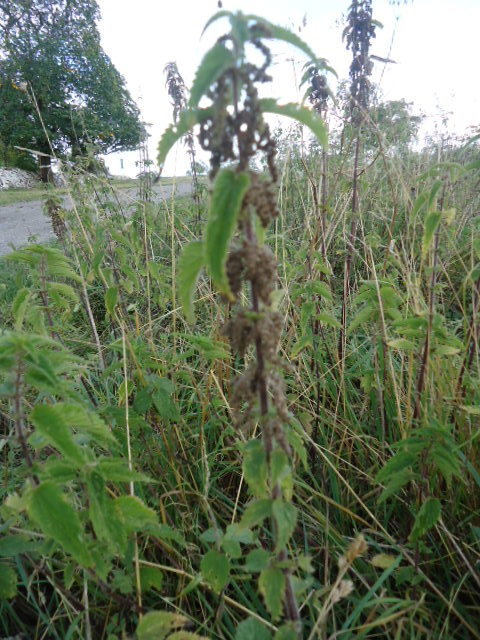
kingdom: Plantae
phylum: Tracheophyta
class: Magnoliopsida
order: Rosales
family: Urticaceae
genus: Urtica
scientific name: Urtica dioica
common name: Common nettle
